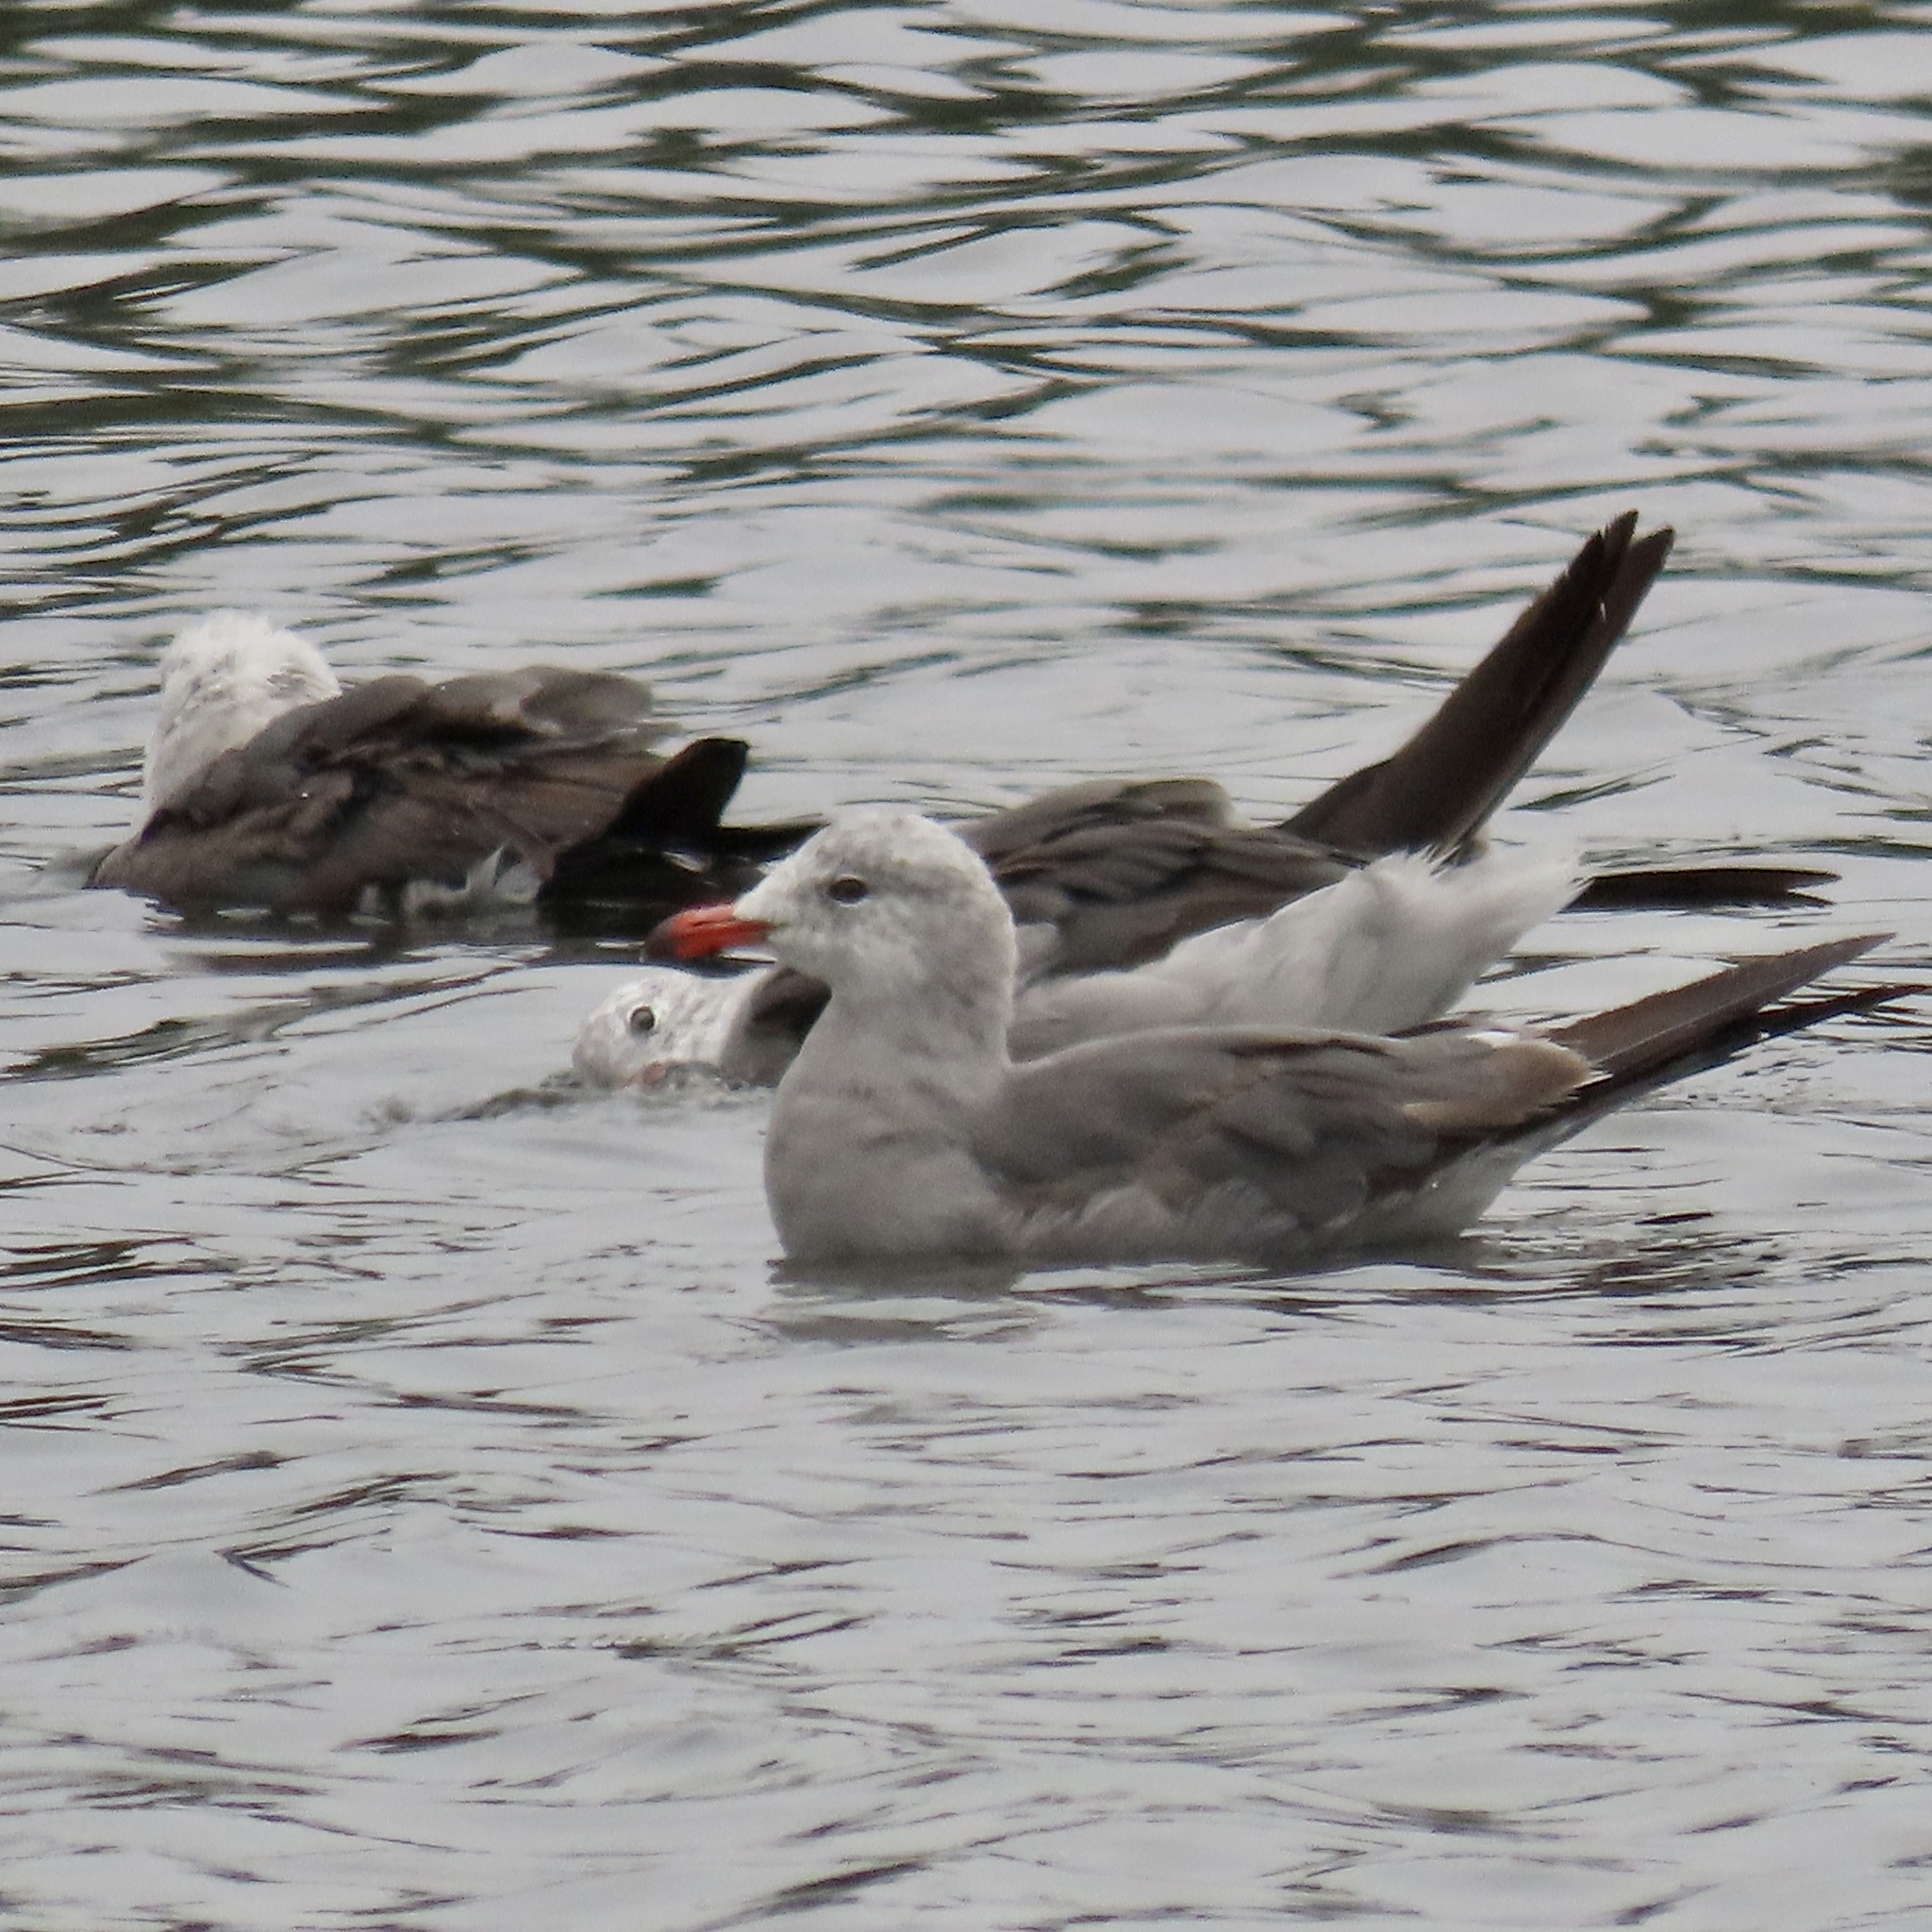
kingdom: Animalia
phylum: Chordata
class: Aves
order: Charadriiformes
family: Laridae
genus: Larus
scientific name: Larus heermanni
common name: Heermann's gull
